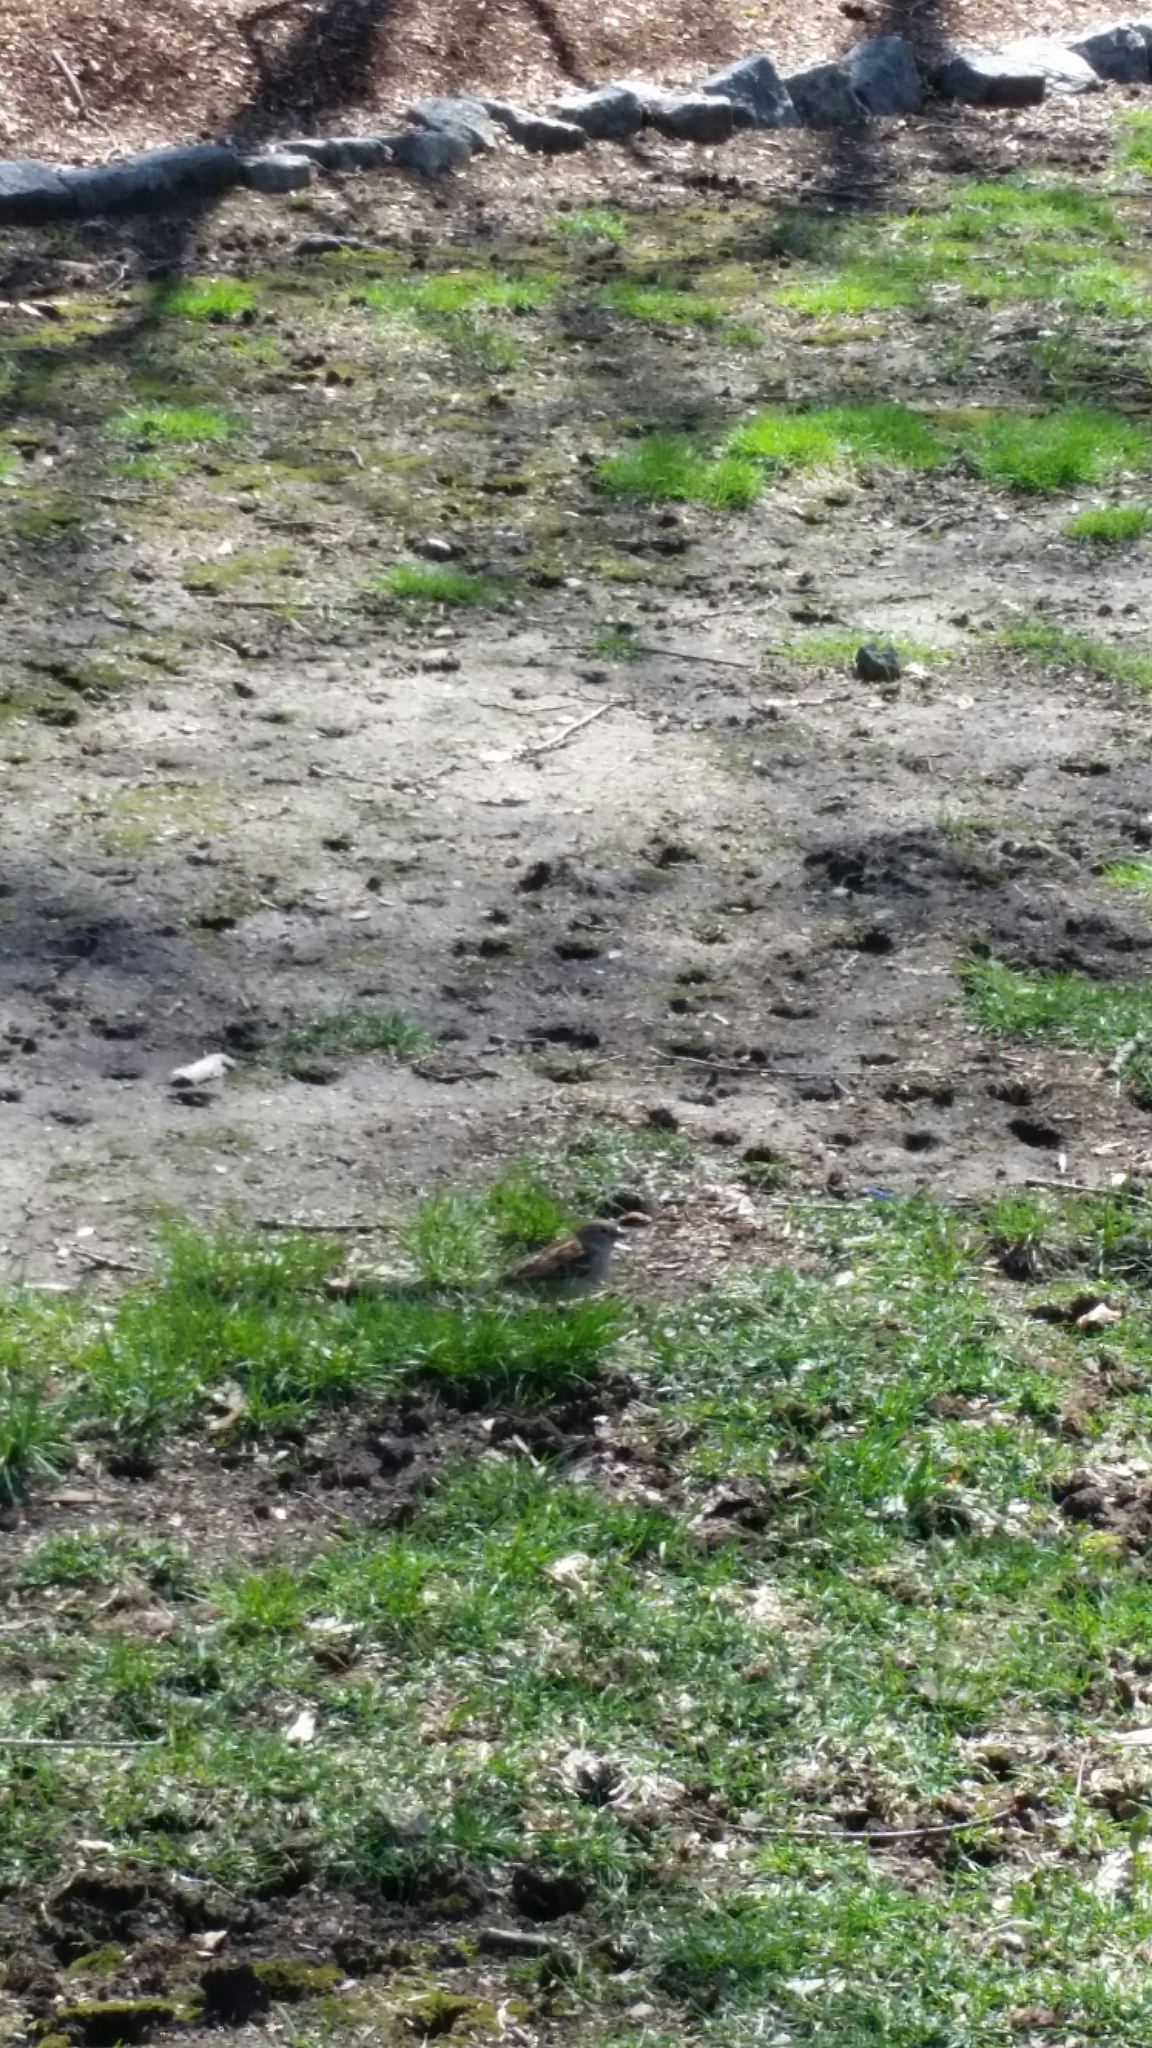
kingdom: Animalia
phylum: Chordata
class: Aves
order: Passeriformes
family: Passeridae
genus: Passer
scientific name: Passer domesticus
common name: House sparrow
